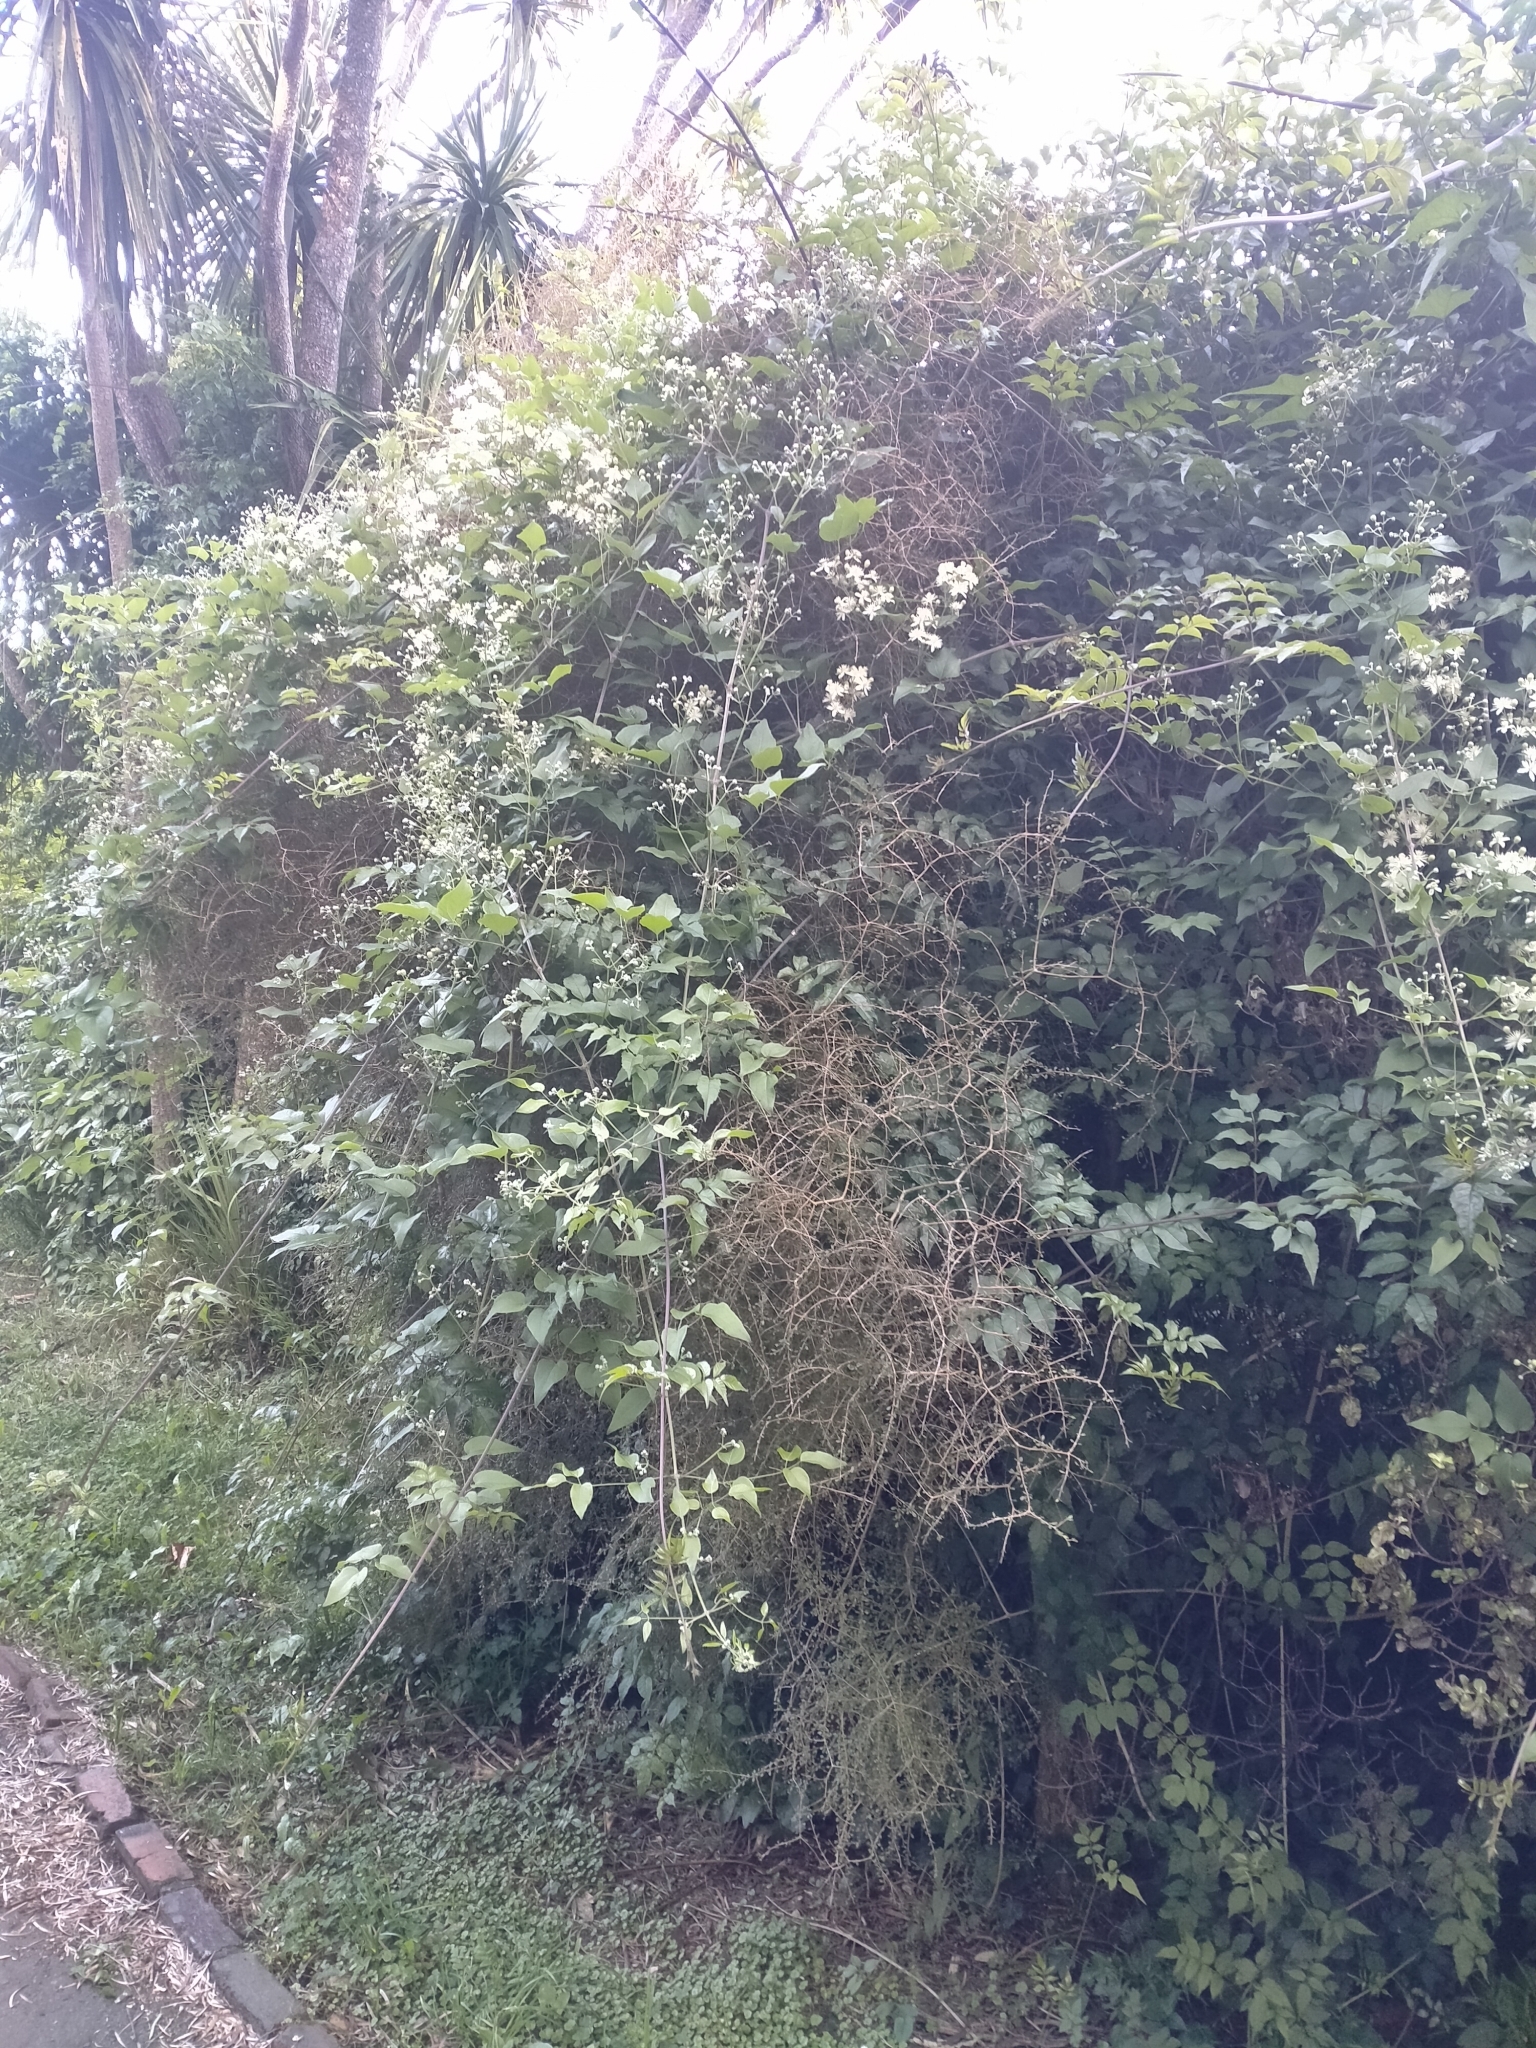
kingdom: Plantae
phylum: Tracheophyta
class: Magnoliopsida
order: Ranunculales
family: Ranunculaceae
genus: Clematis
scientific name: Clematis vitalba
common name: Evergreen clematis
